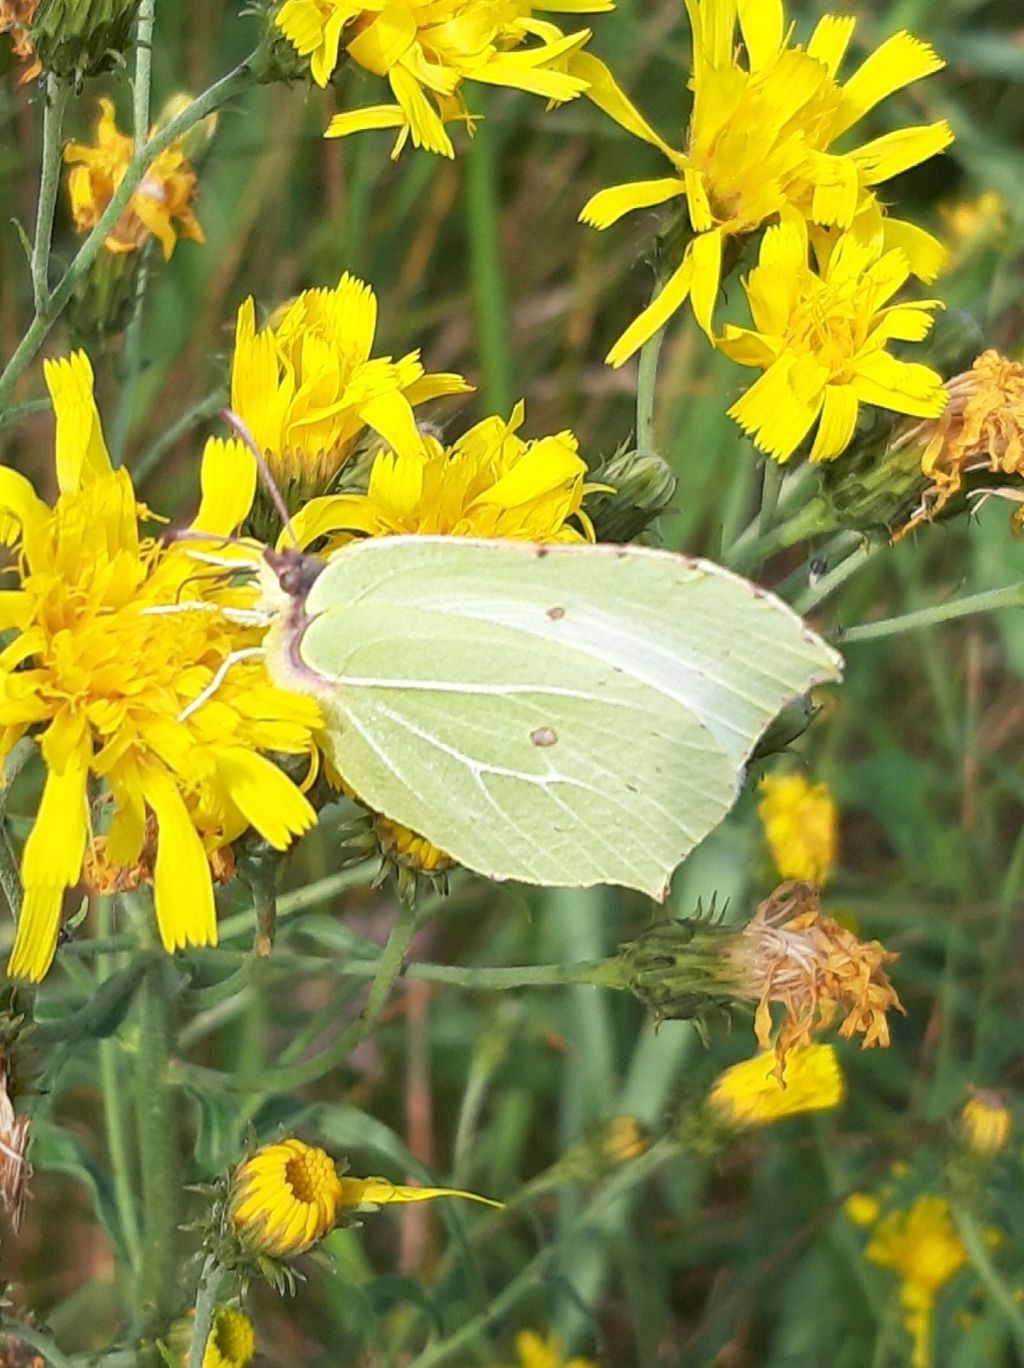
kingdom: Animalia
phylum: Arthropoda
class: Insecta
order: Lepidoptera
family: Pieridae
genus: Gonepteryx
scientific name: Gonepteryx rhamni
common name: Brimstone
